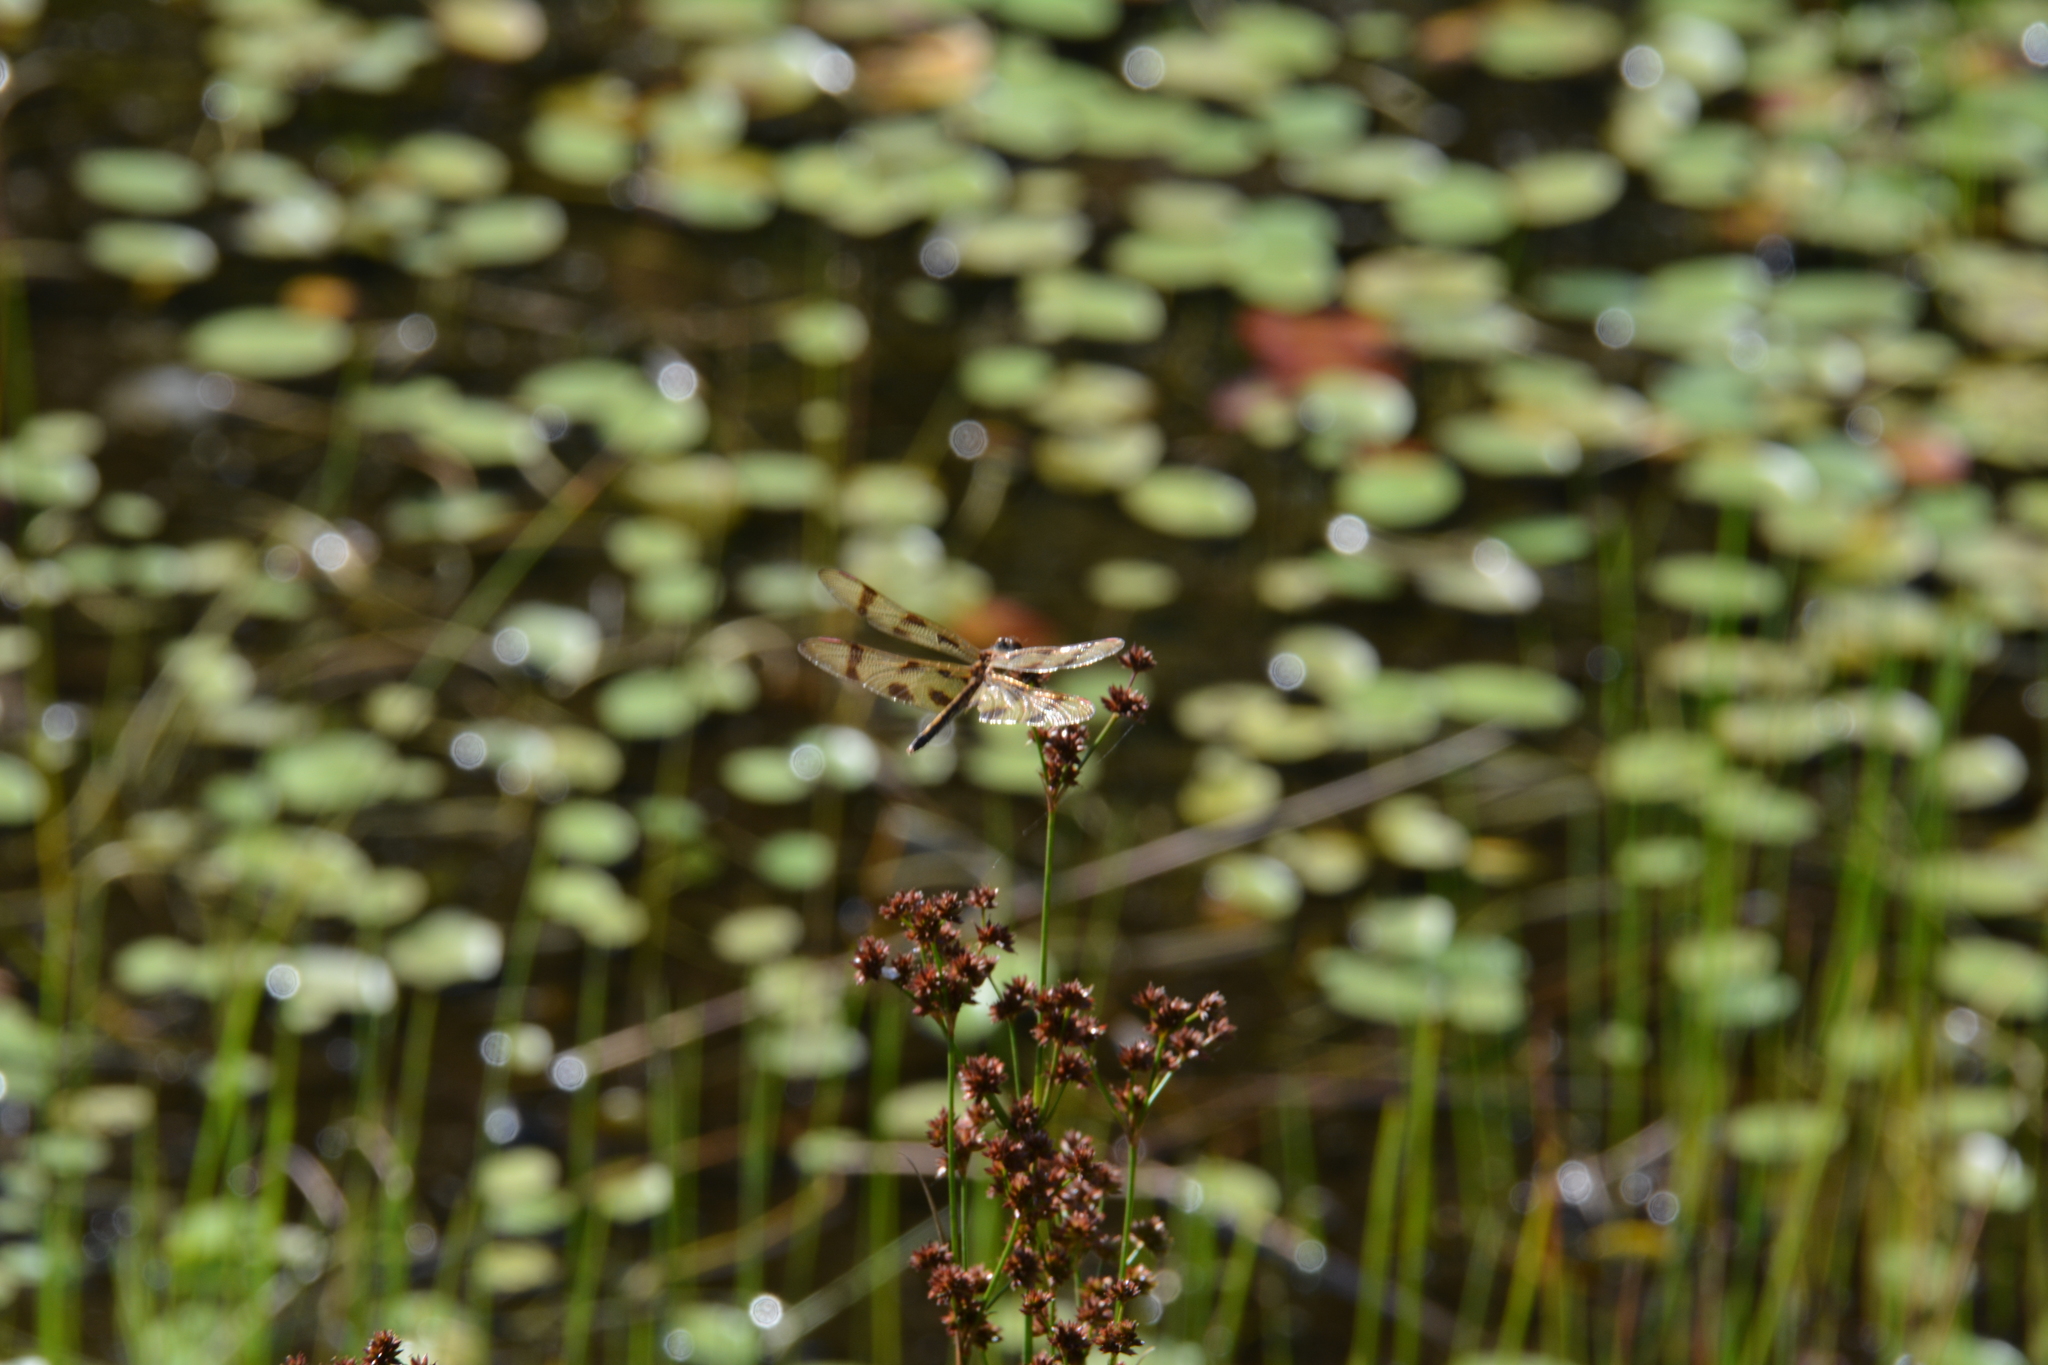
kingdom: Animalia
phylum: Arthropoda
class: Insecta
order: Odonata
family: Libellulidae
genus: Celithemis
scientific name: Celithemis eponina
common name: Halloween pennant
